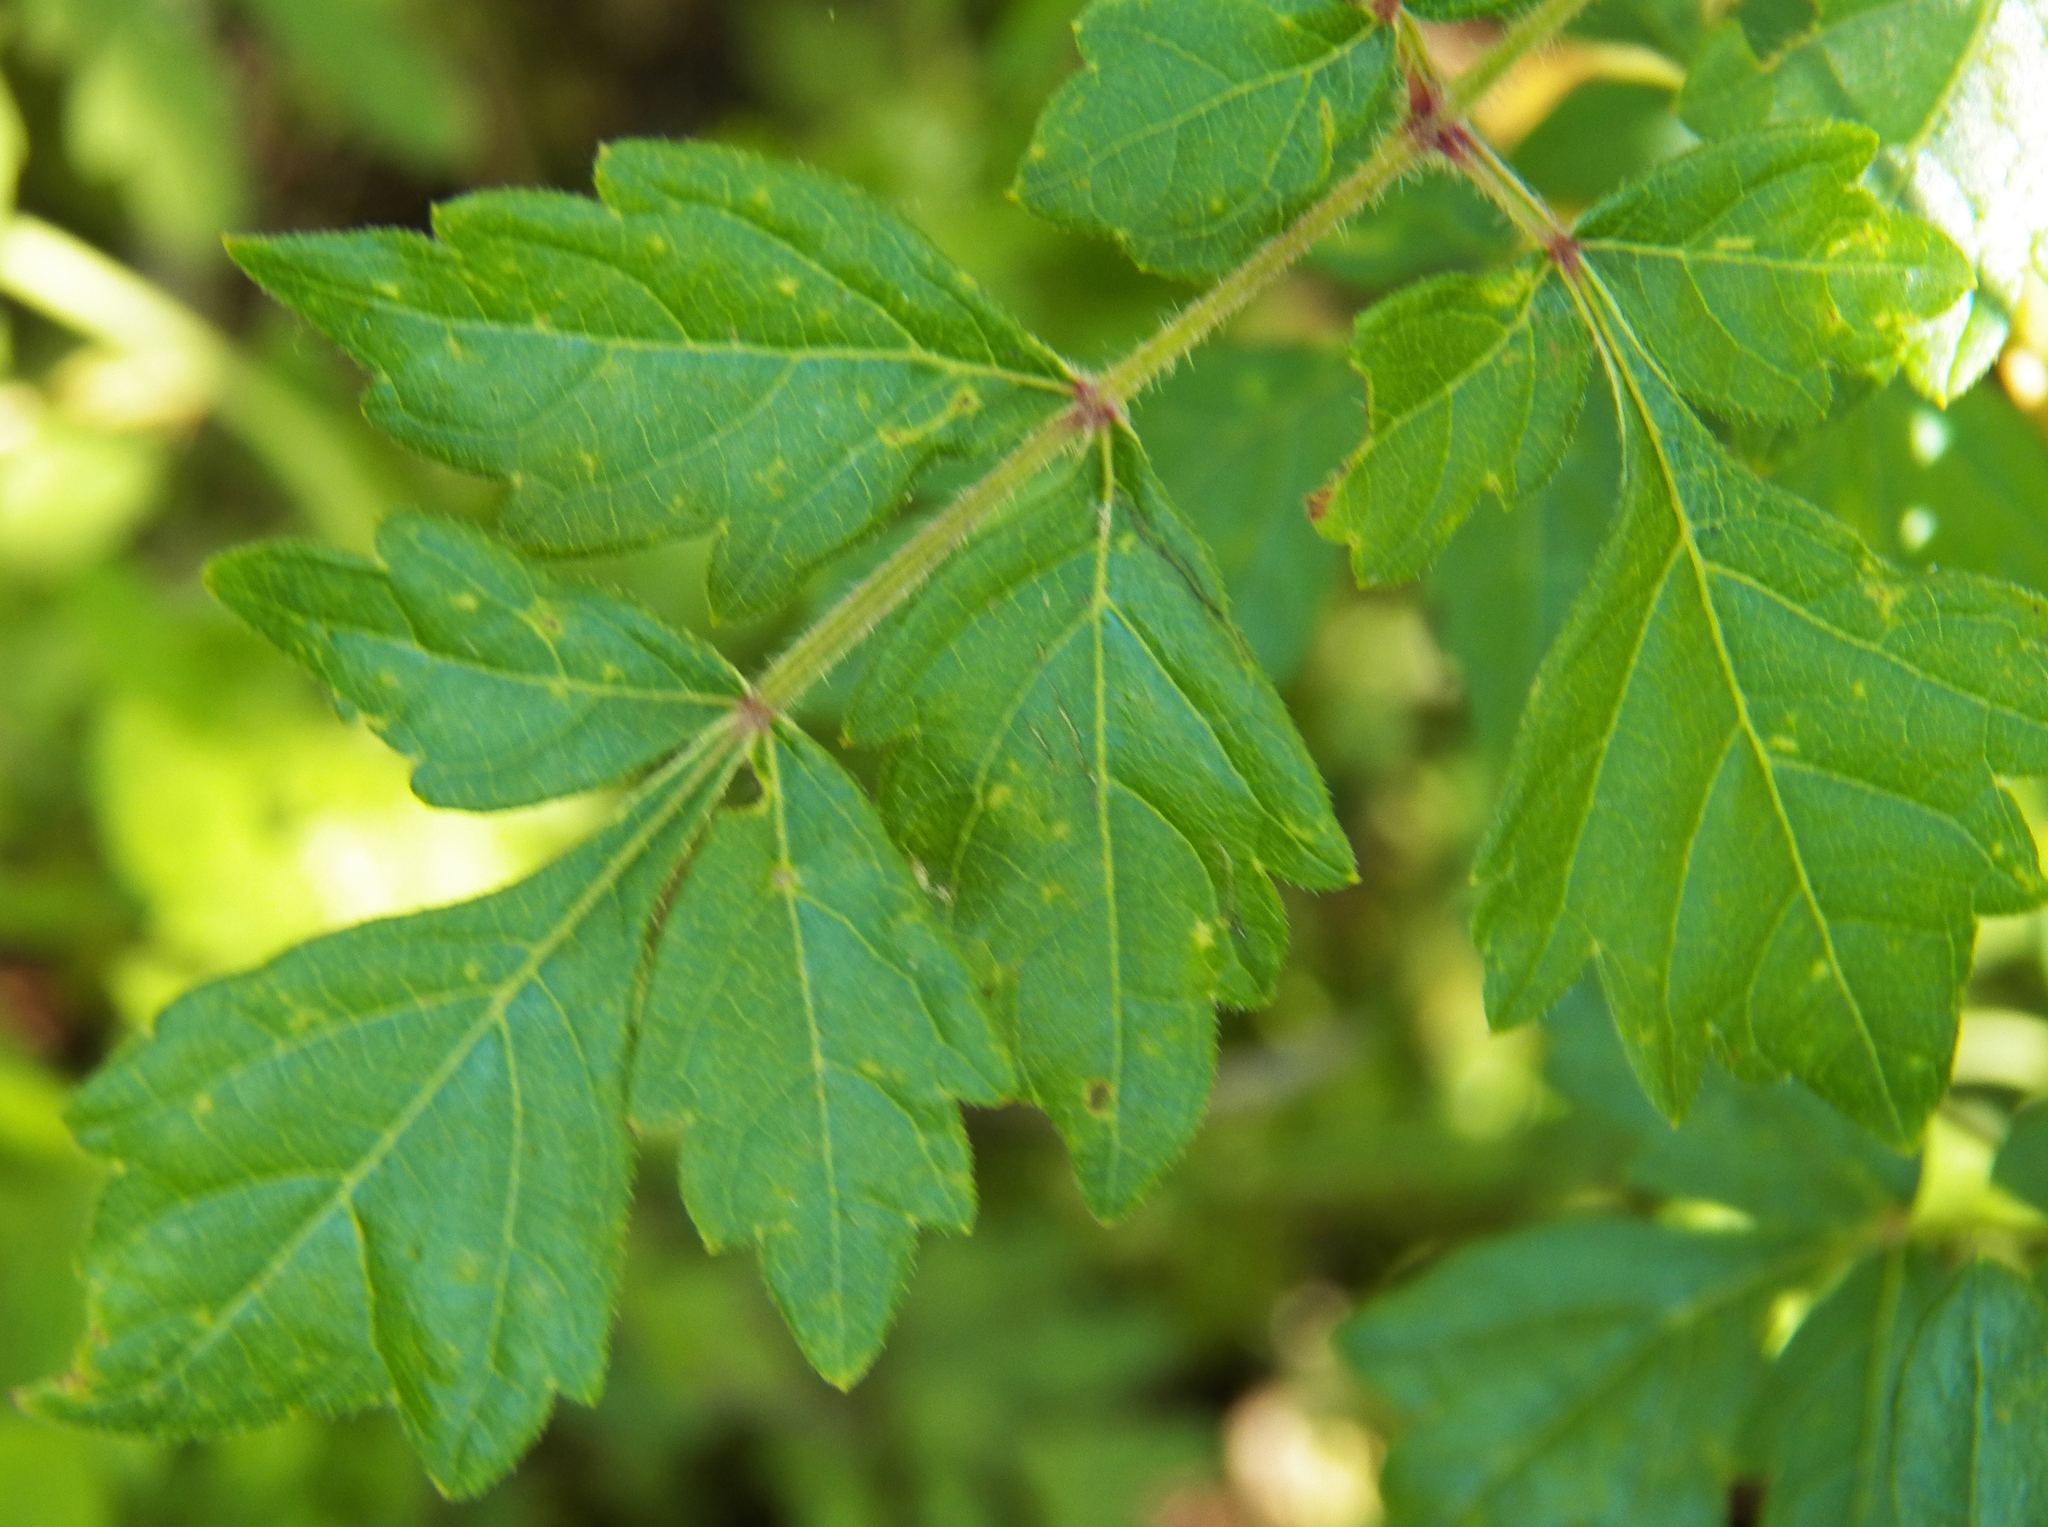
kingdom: Plantae
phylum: Tracheophyta
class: Magnoliopsida
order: Vitales
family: Vitaceae
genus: Nekemias
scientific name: Nekemias arborea
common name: Peppervine
